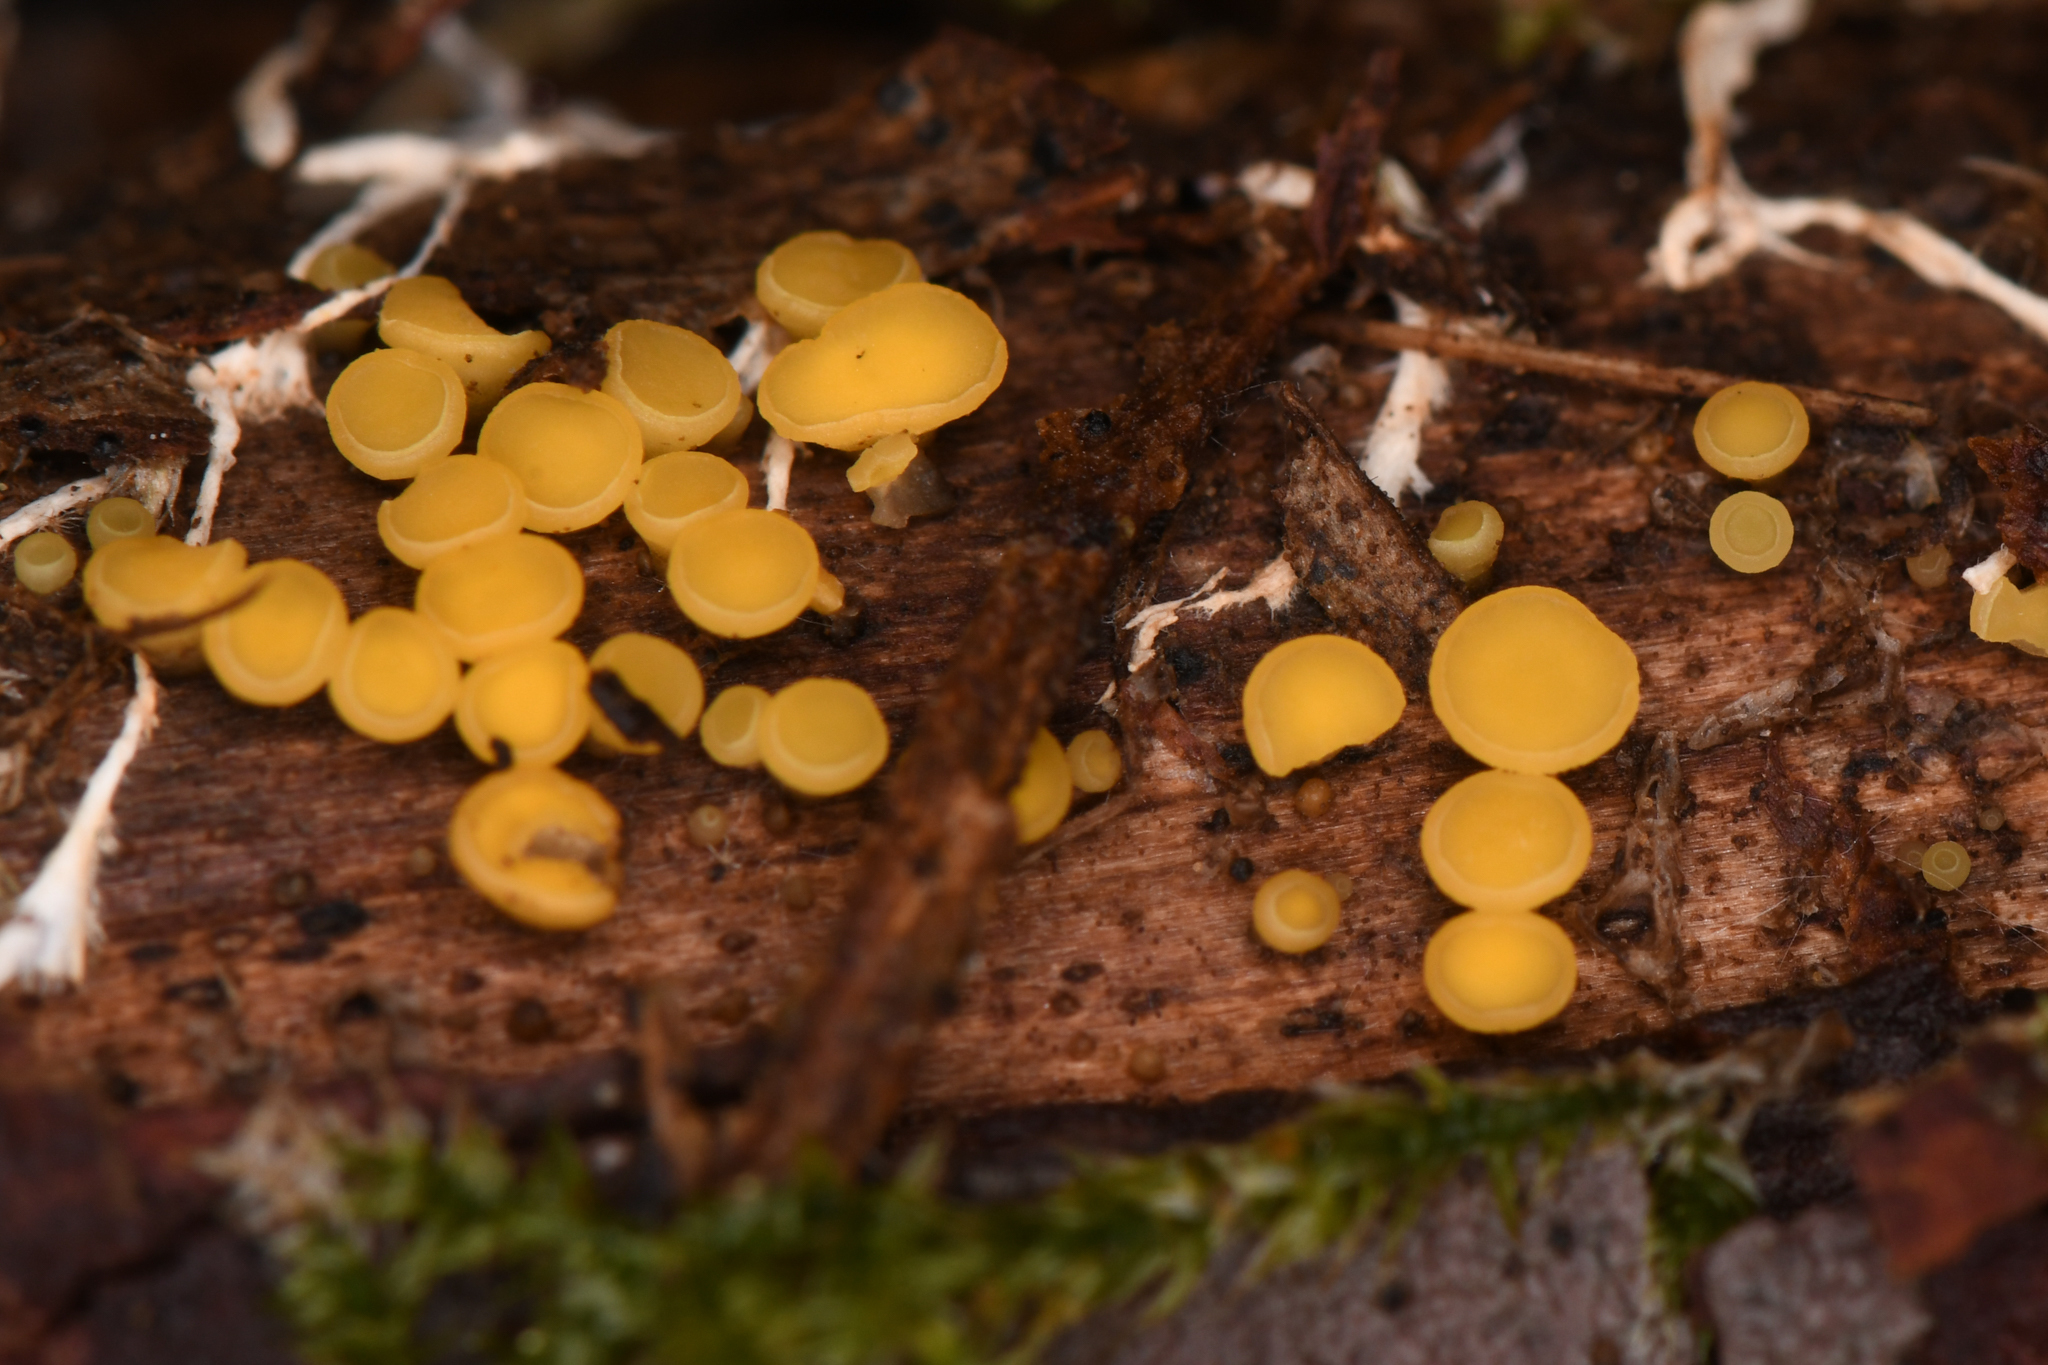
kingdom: Fungi
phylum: Ascomycota
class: Leotiomycetes
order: Helotiales
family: Pezizellaceae
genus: Calycina
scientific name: Calycina citrina
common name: Yellow fairy cups
